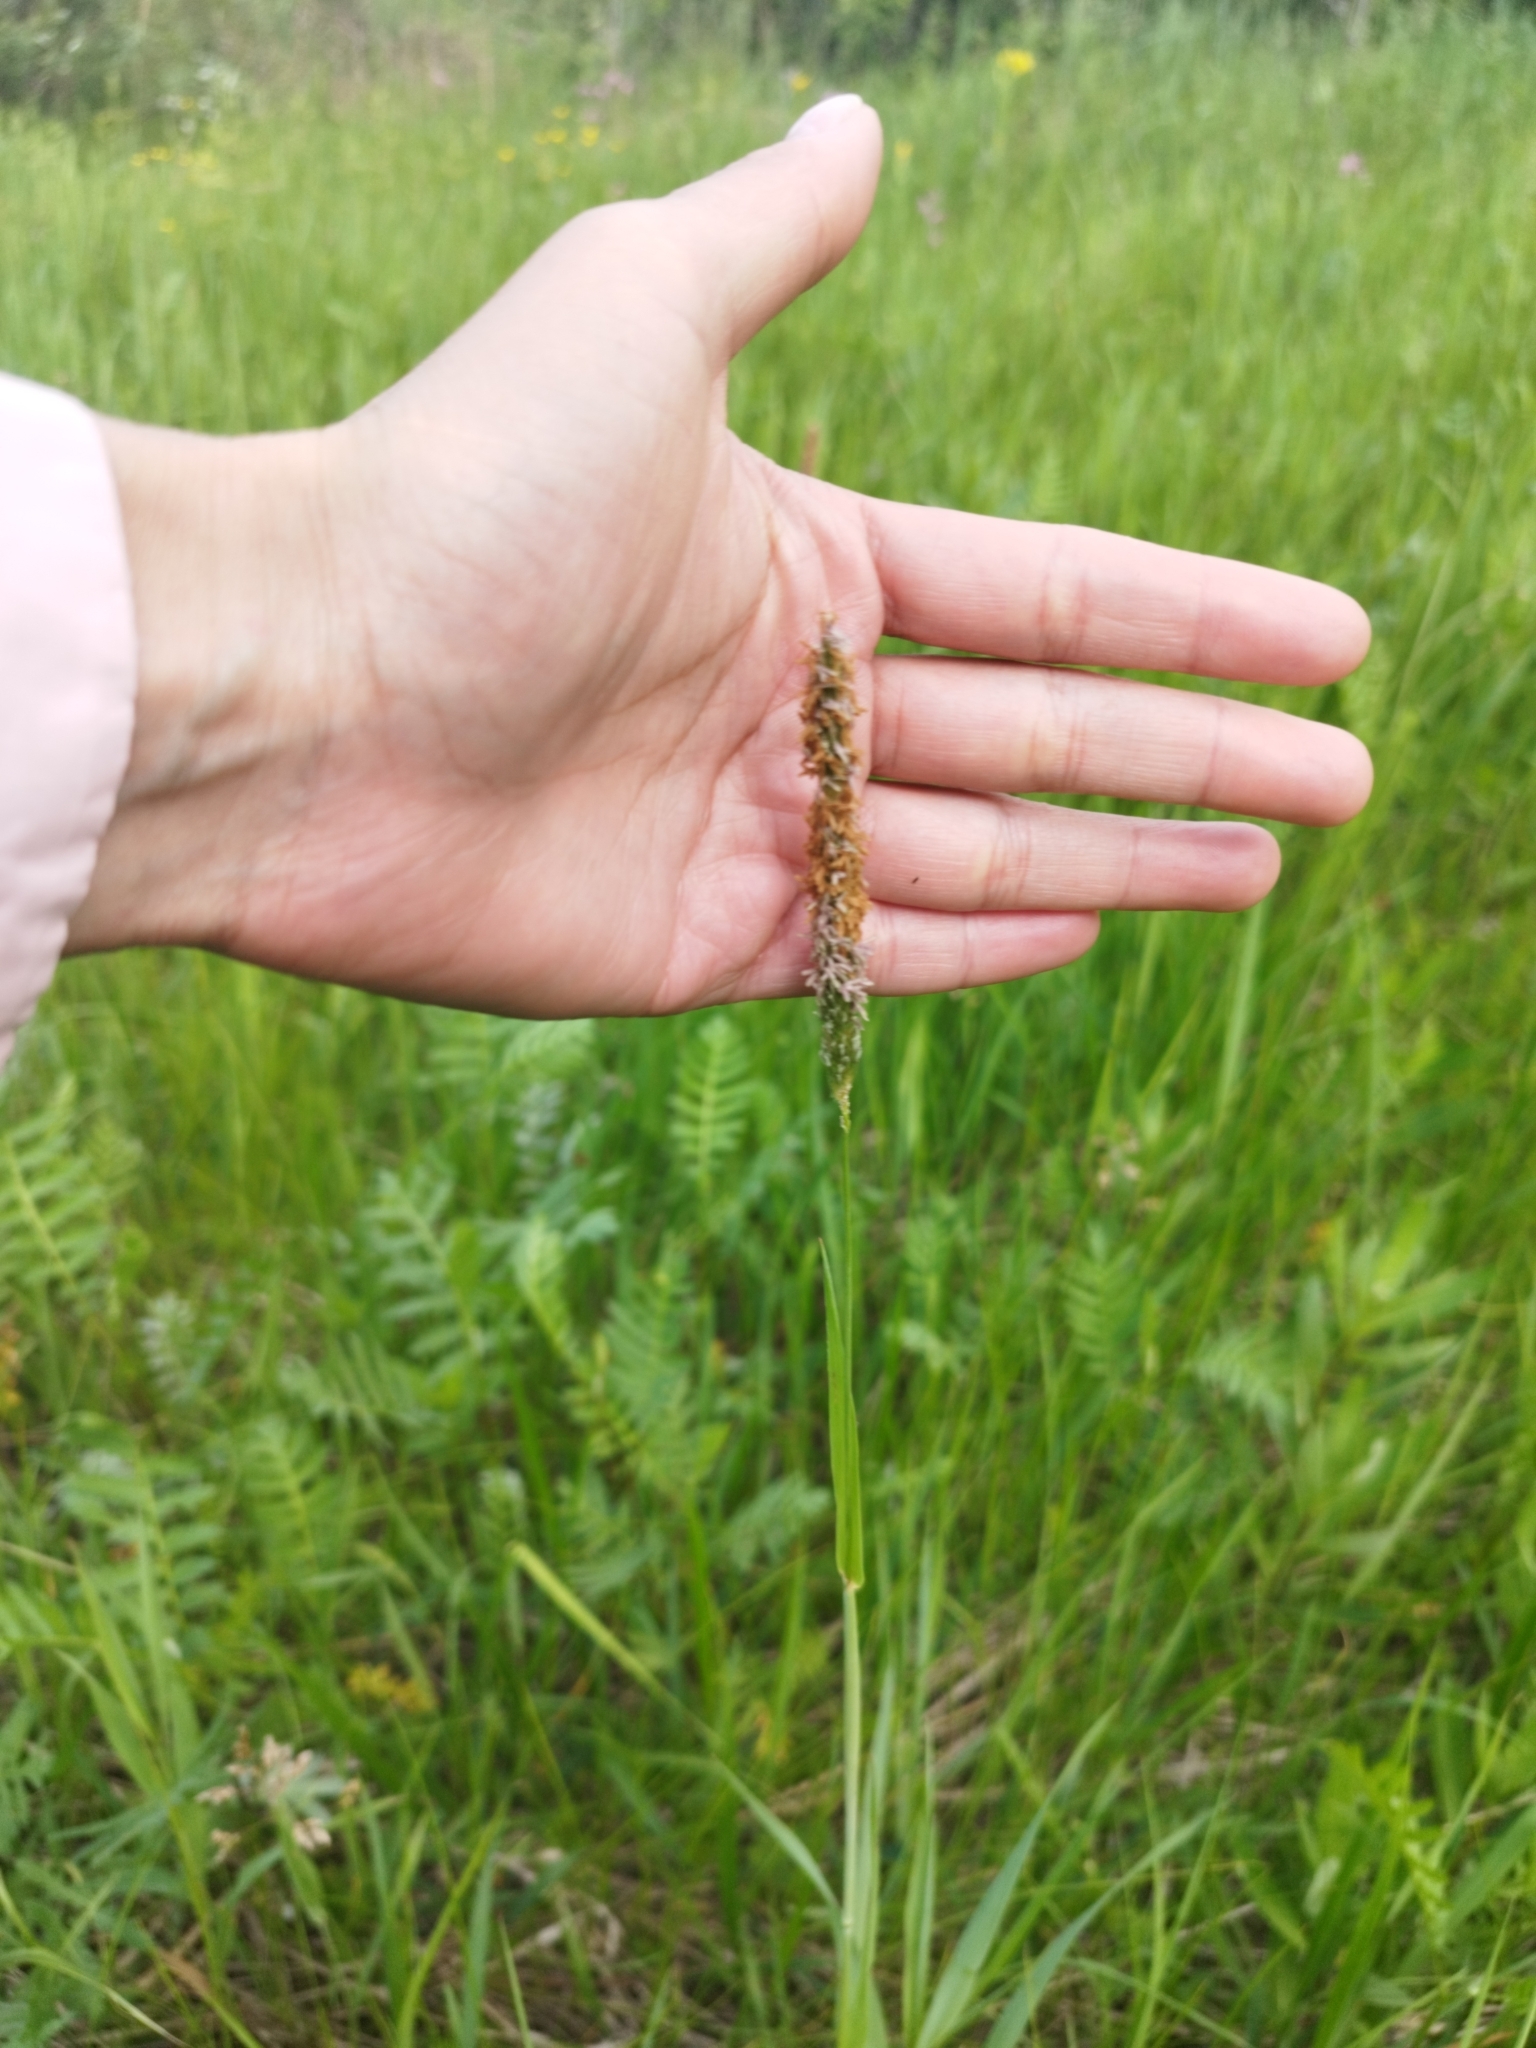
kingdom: Plantae
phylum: Tracheophyta
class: Liliopsida
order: Poales
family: Poaceae
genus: Alopecurus
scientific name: Alopecurus pratensis
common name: Meadow foxtail
